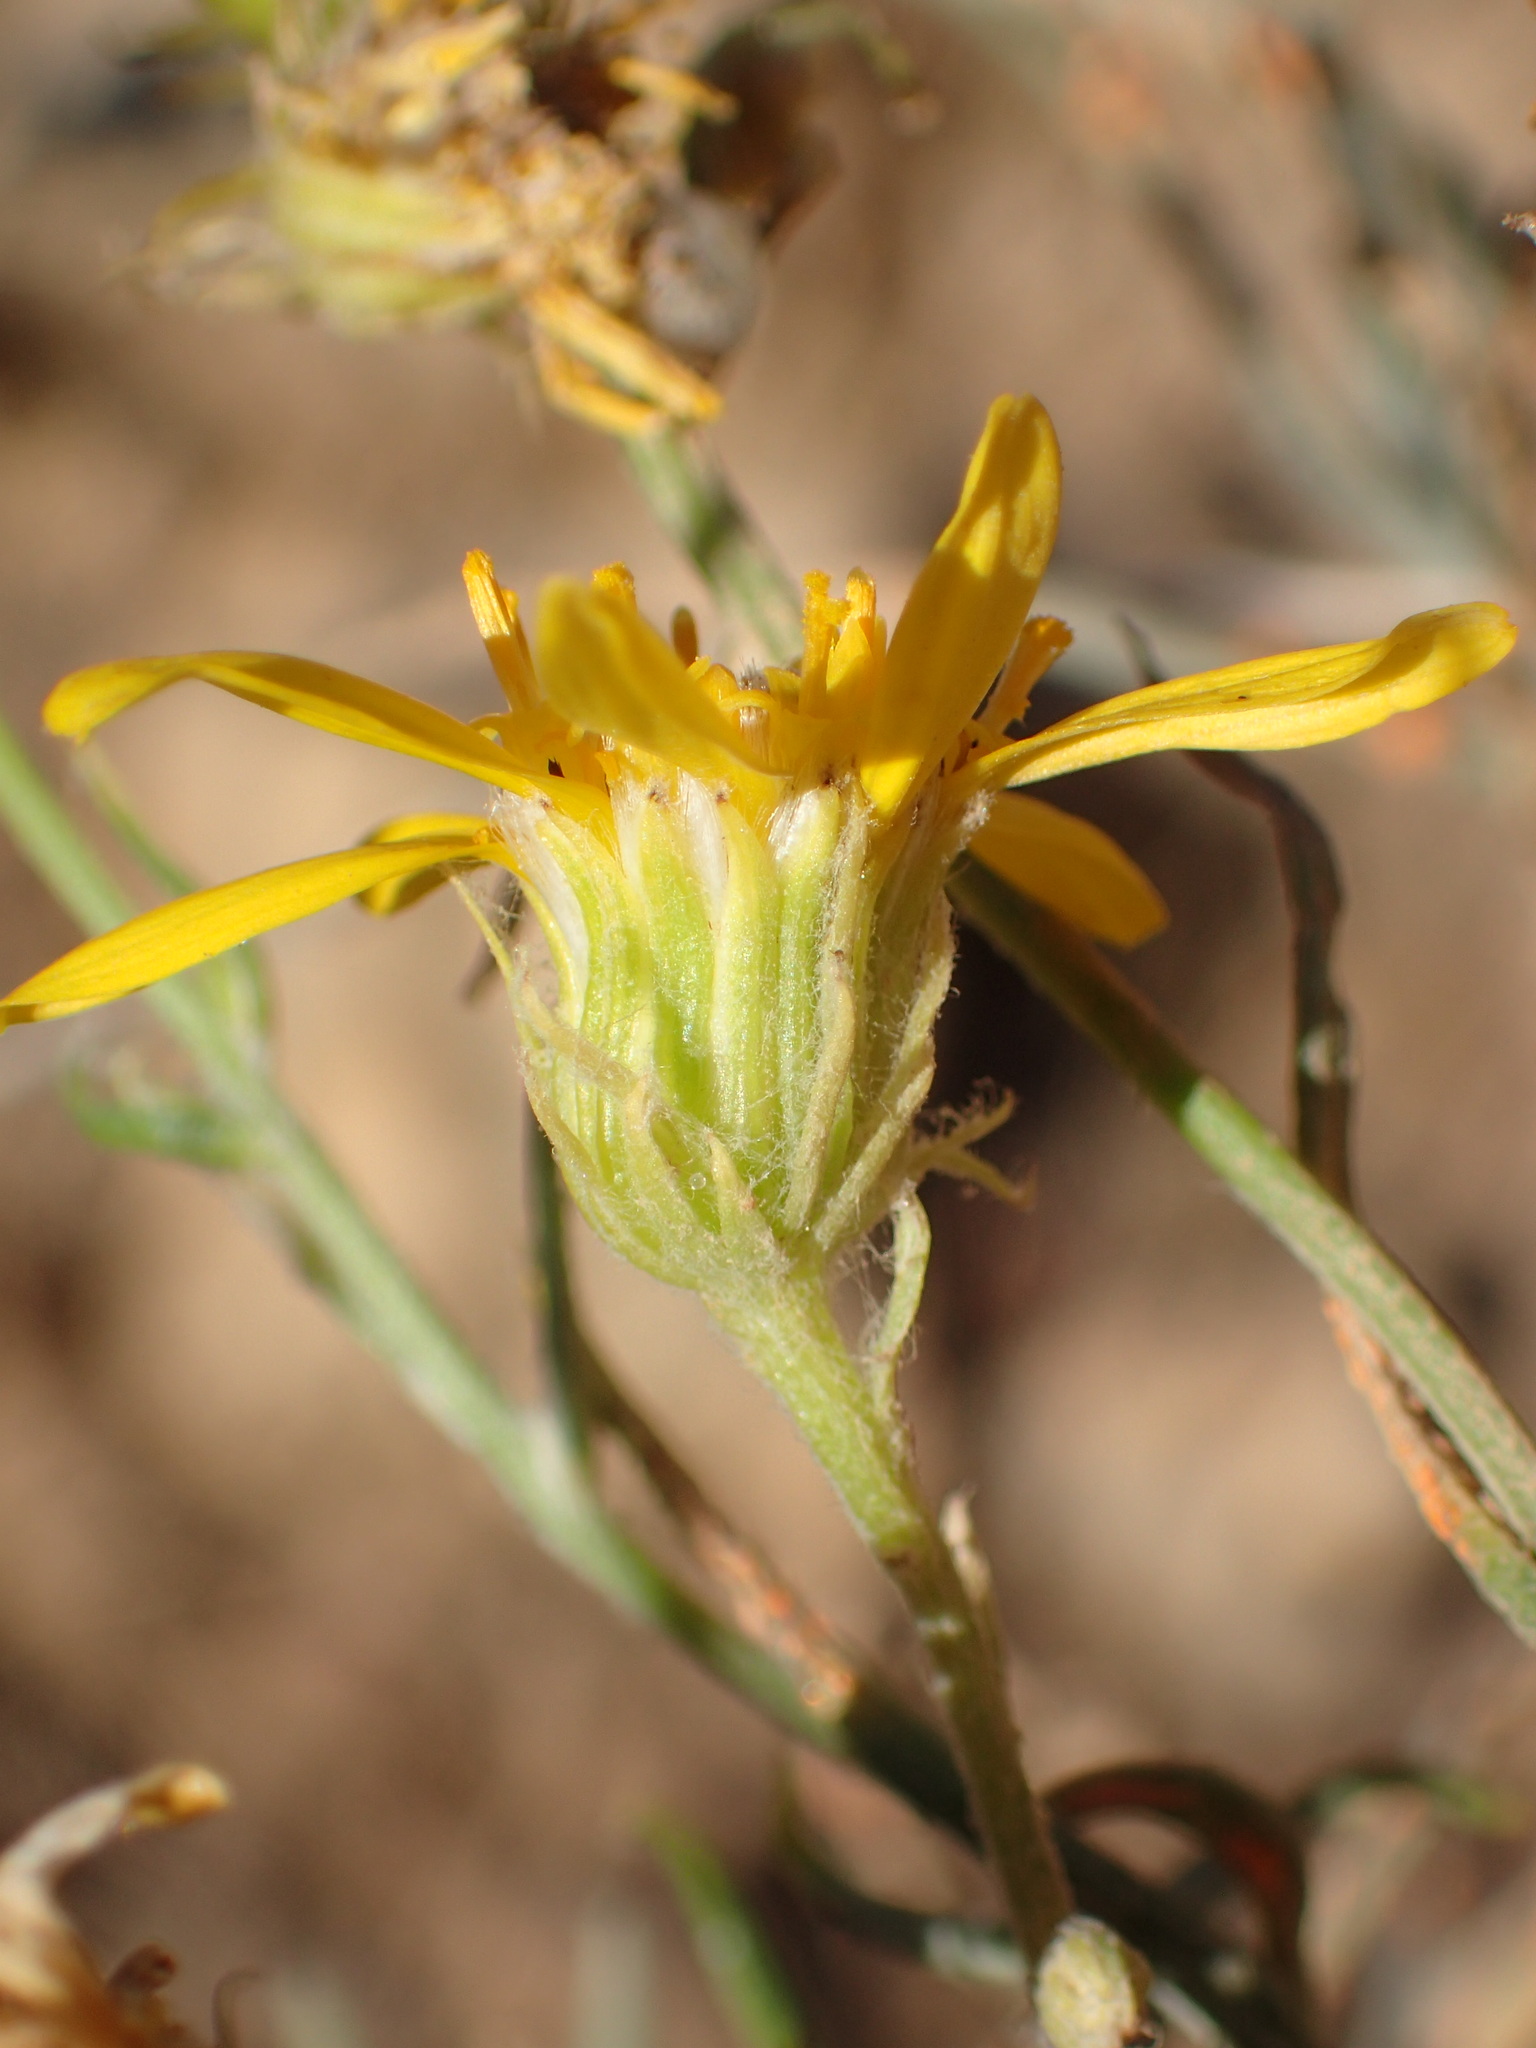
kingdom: Plantae
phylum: Tracheophyta
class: Magnoliopsida
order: Asterales
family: Asteraceae
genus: Senecio
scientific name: Senecio flaccidus
